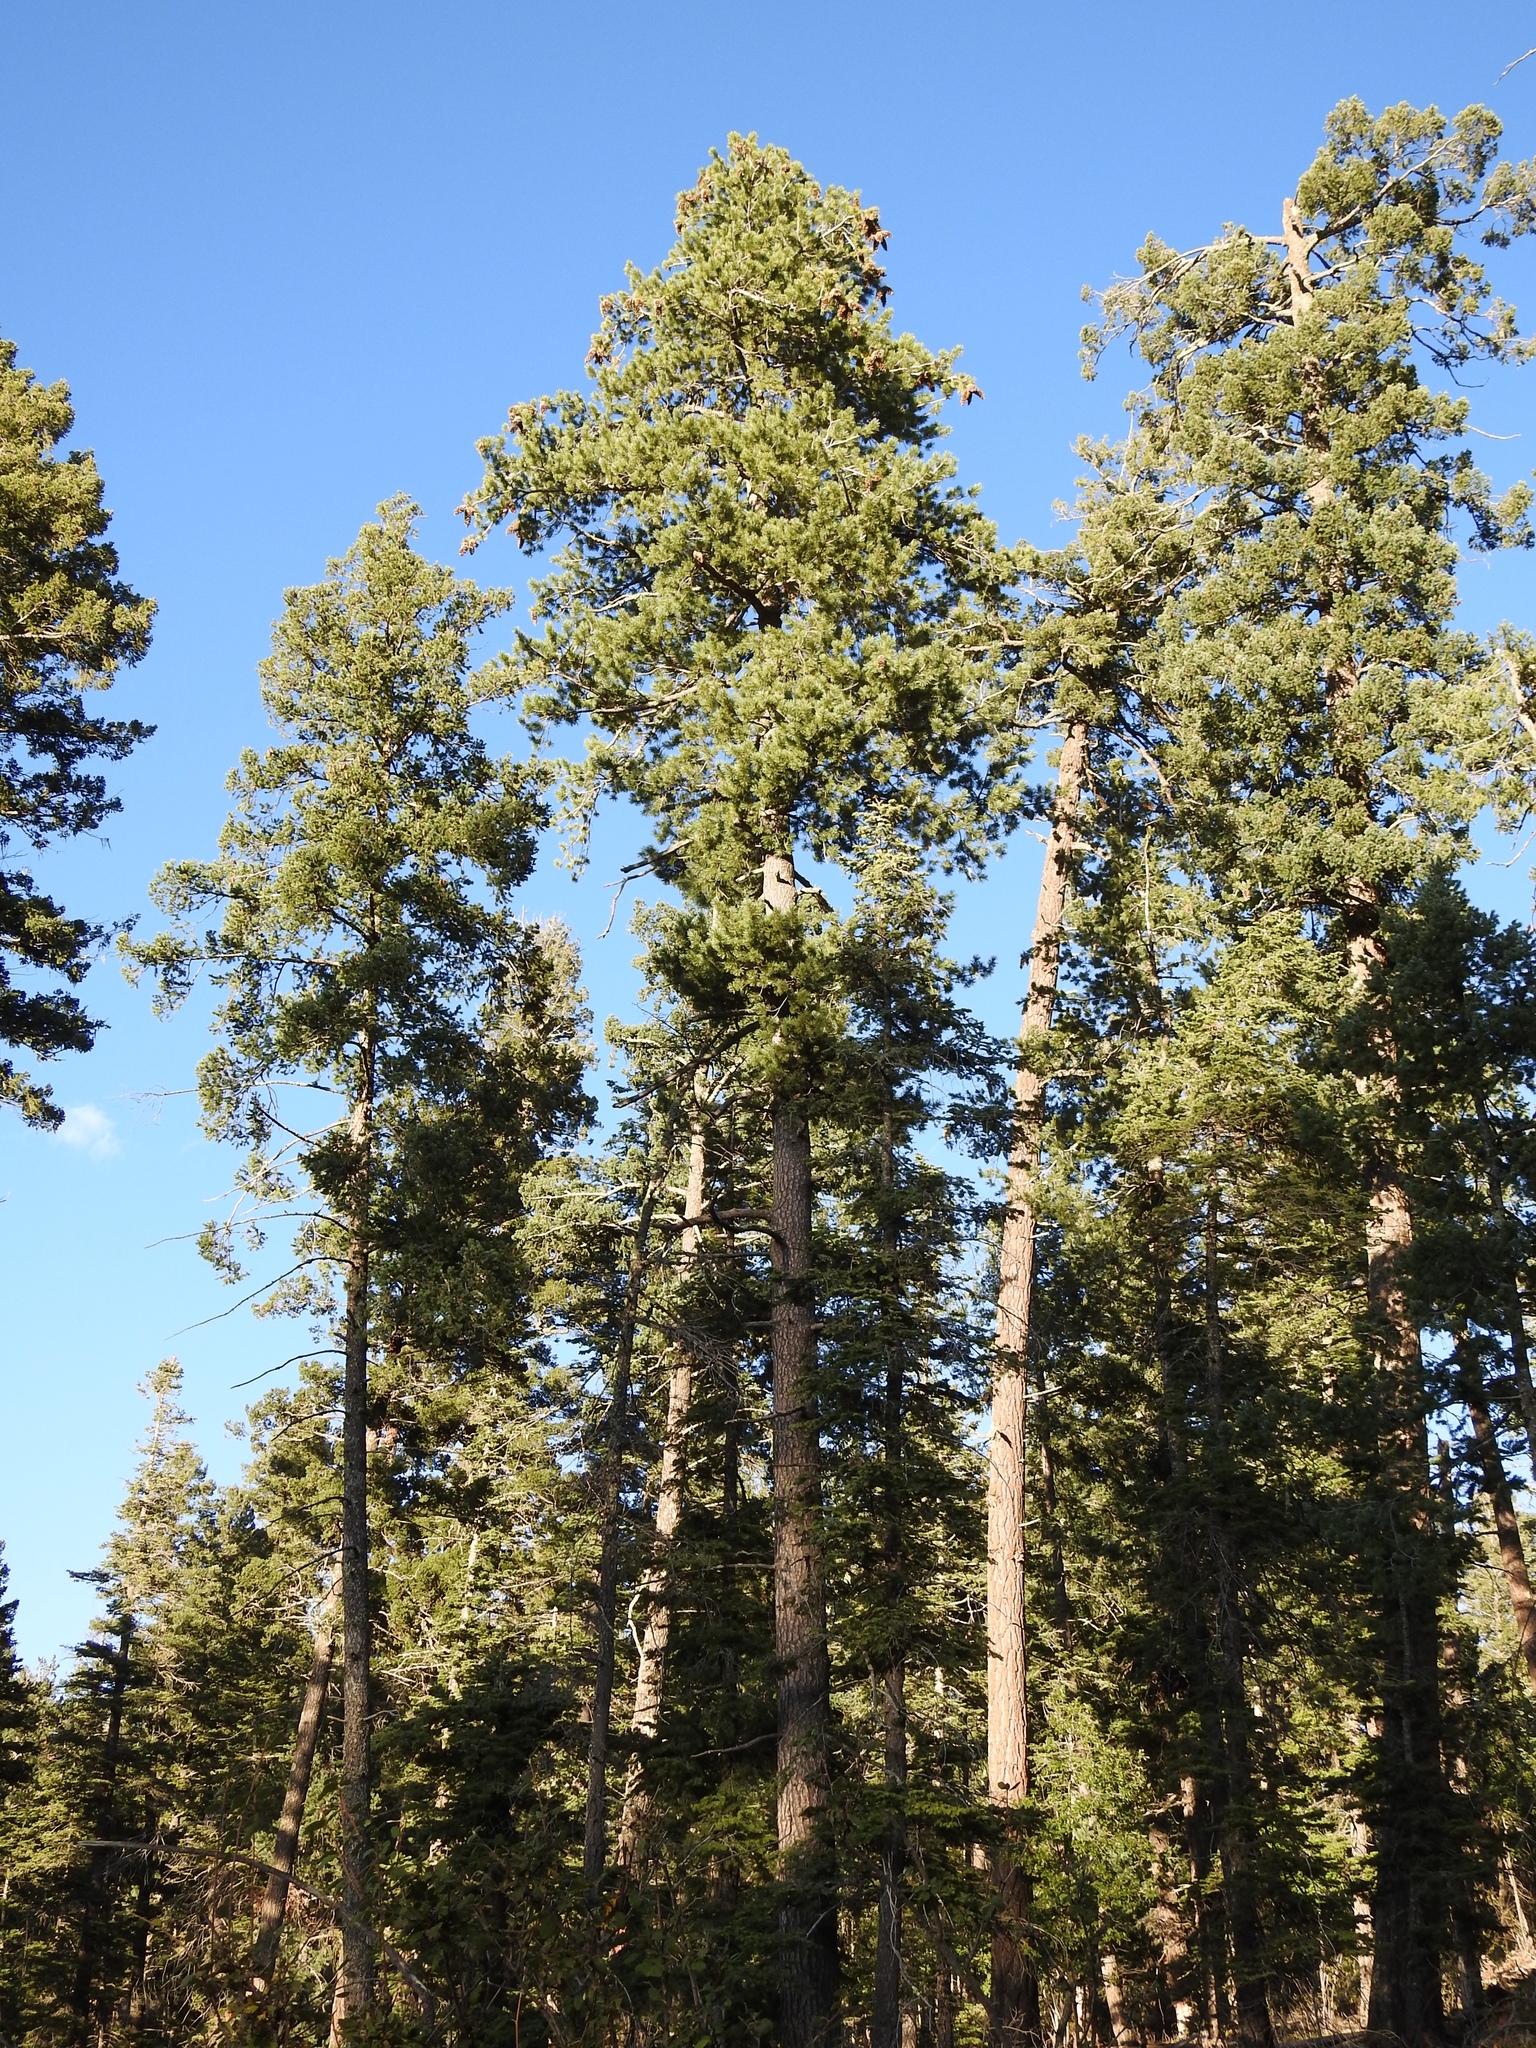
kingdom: Plantae
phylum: Tracheophyta
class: Pinopsida
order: Pinales
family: Pinaceae
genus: Pinus
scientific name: Pinus strobiformis
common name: Southwestern white pine
